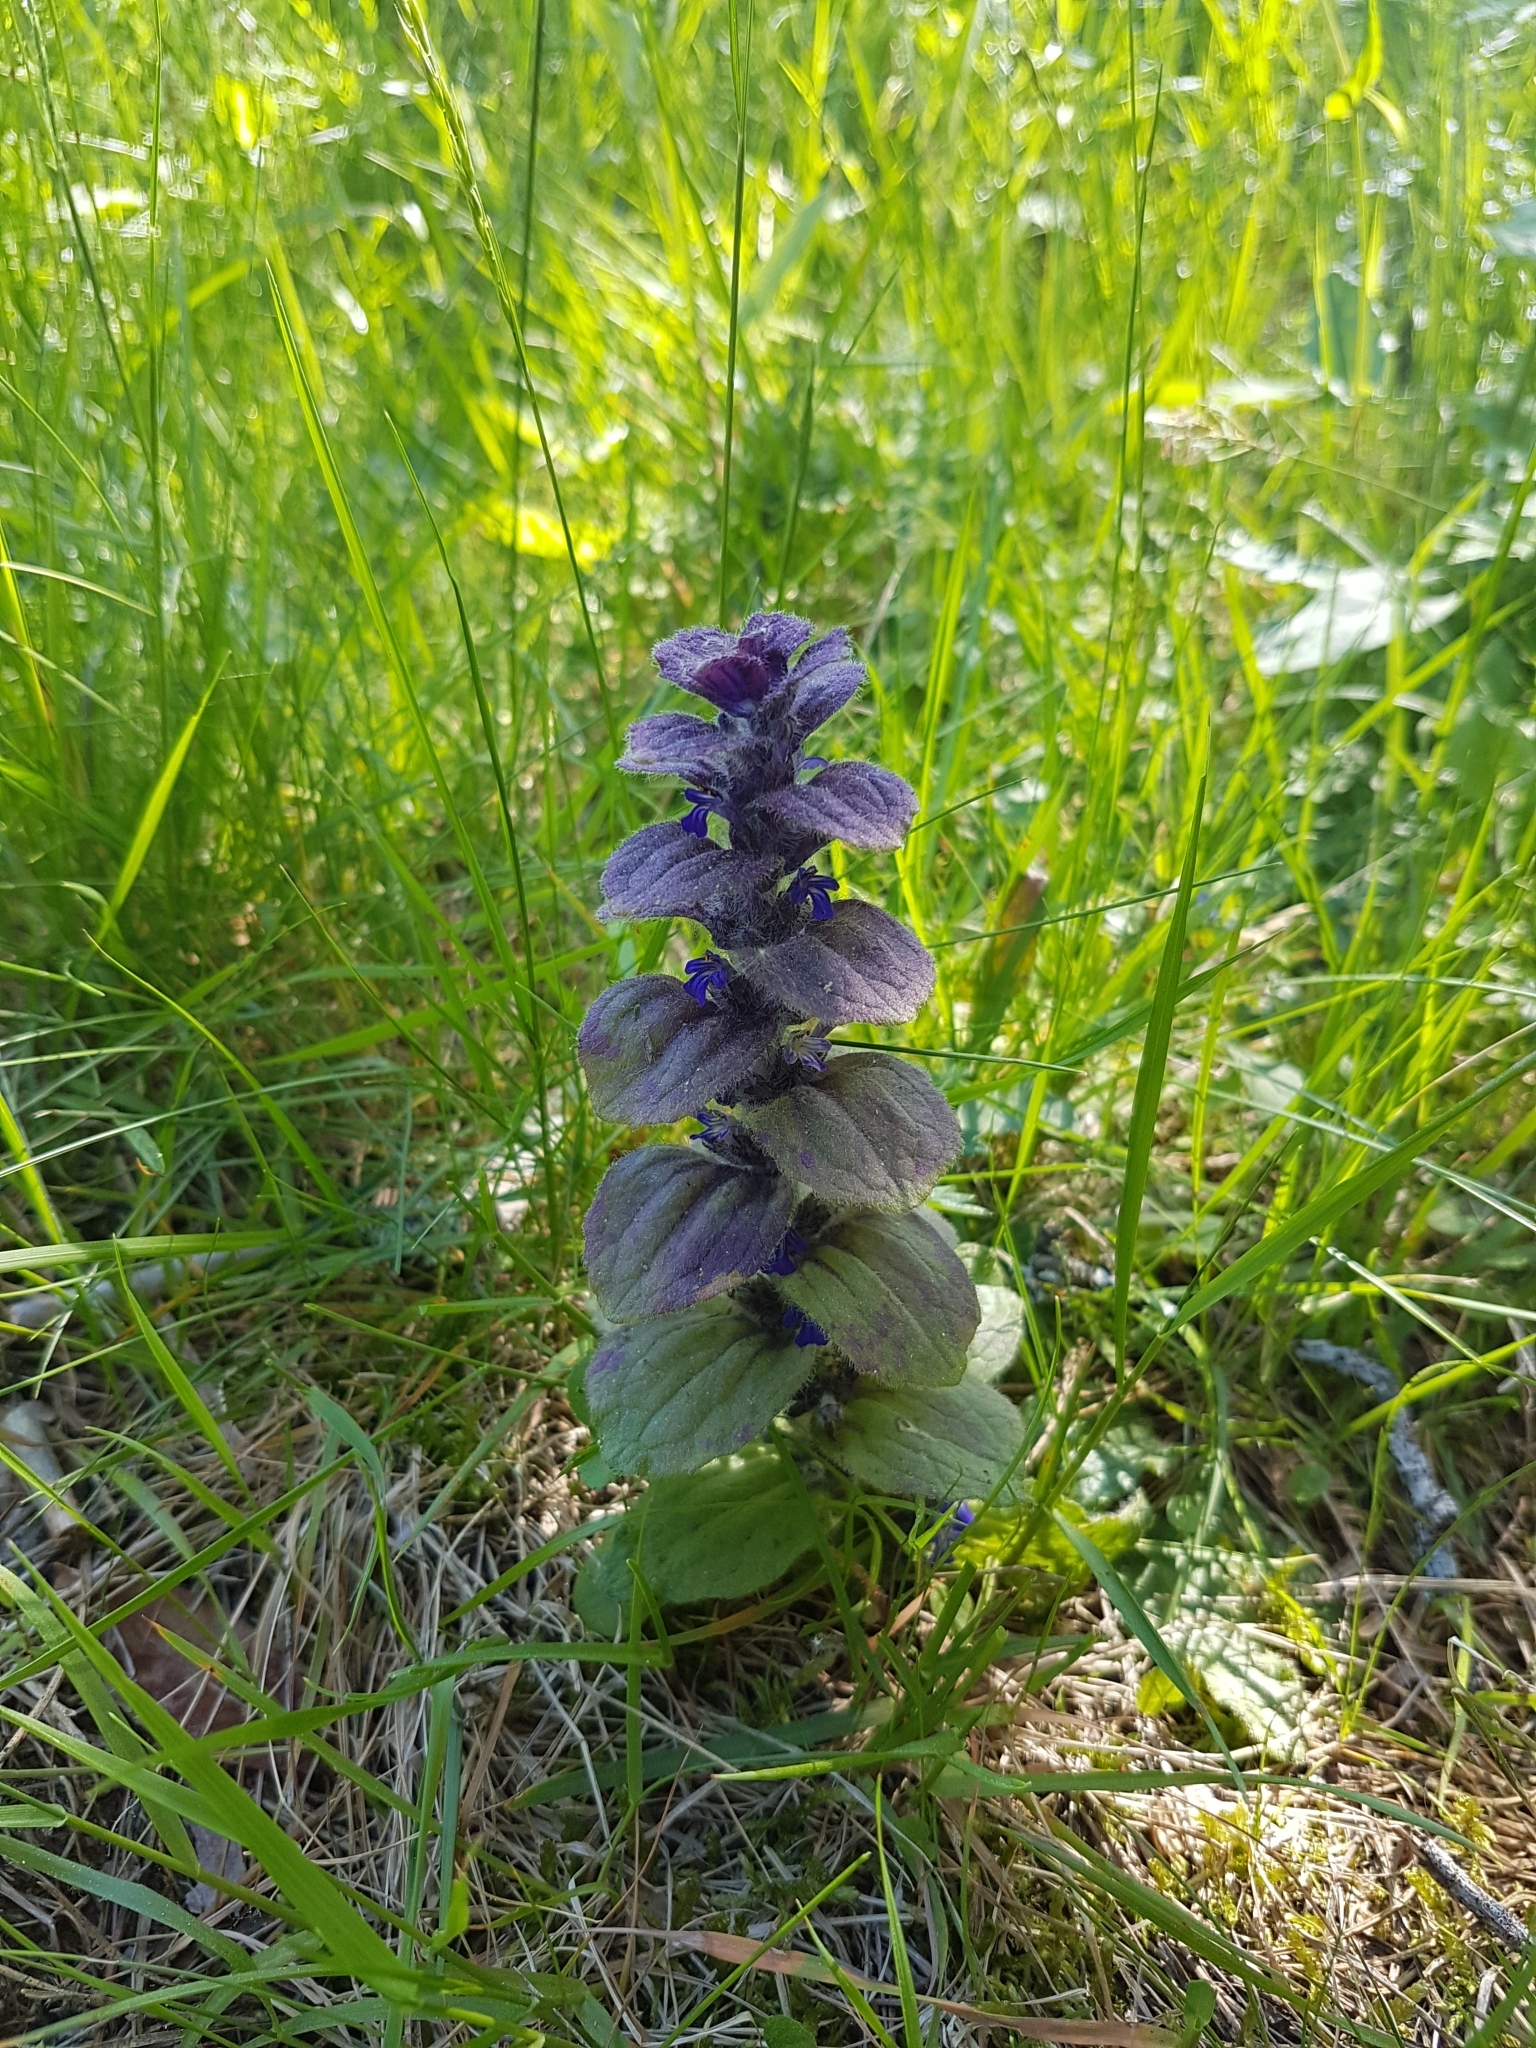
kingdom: Plantae
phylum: Tracheophyta
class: Magnoliopsida
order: Lamiales
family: Lamiaceae
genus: Ajuga
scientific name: Ajuga pyramidalis
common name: Pyramid bugle
